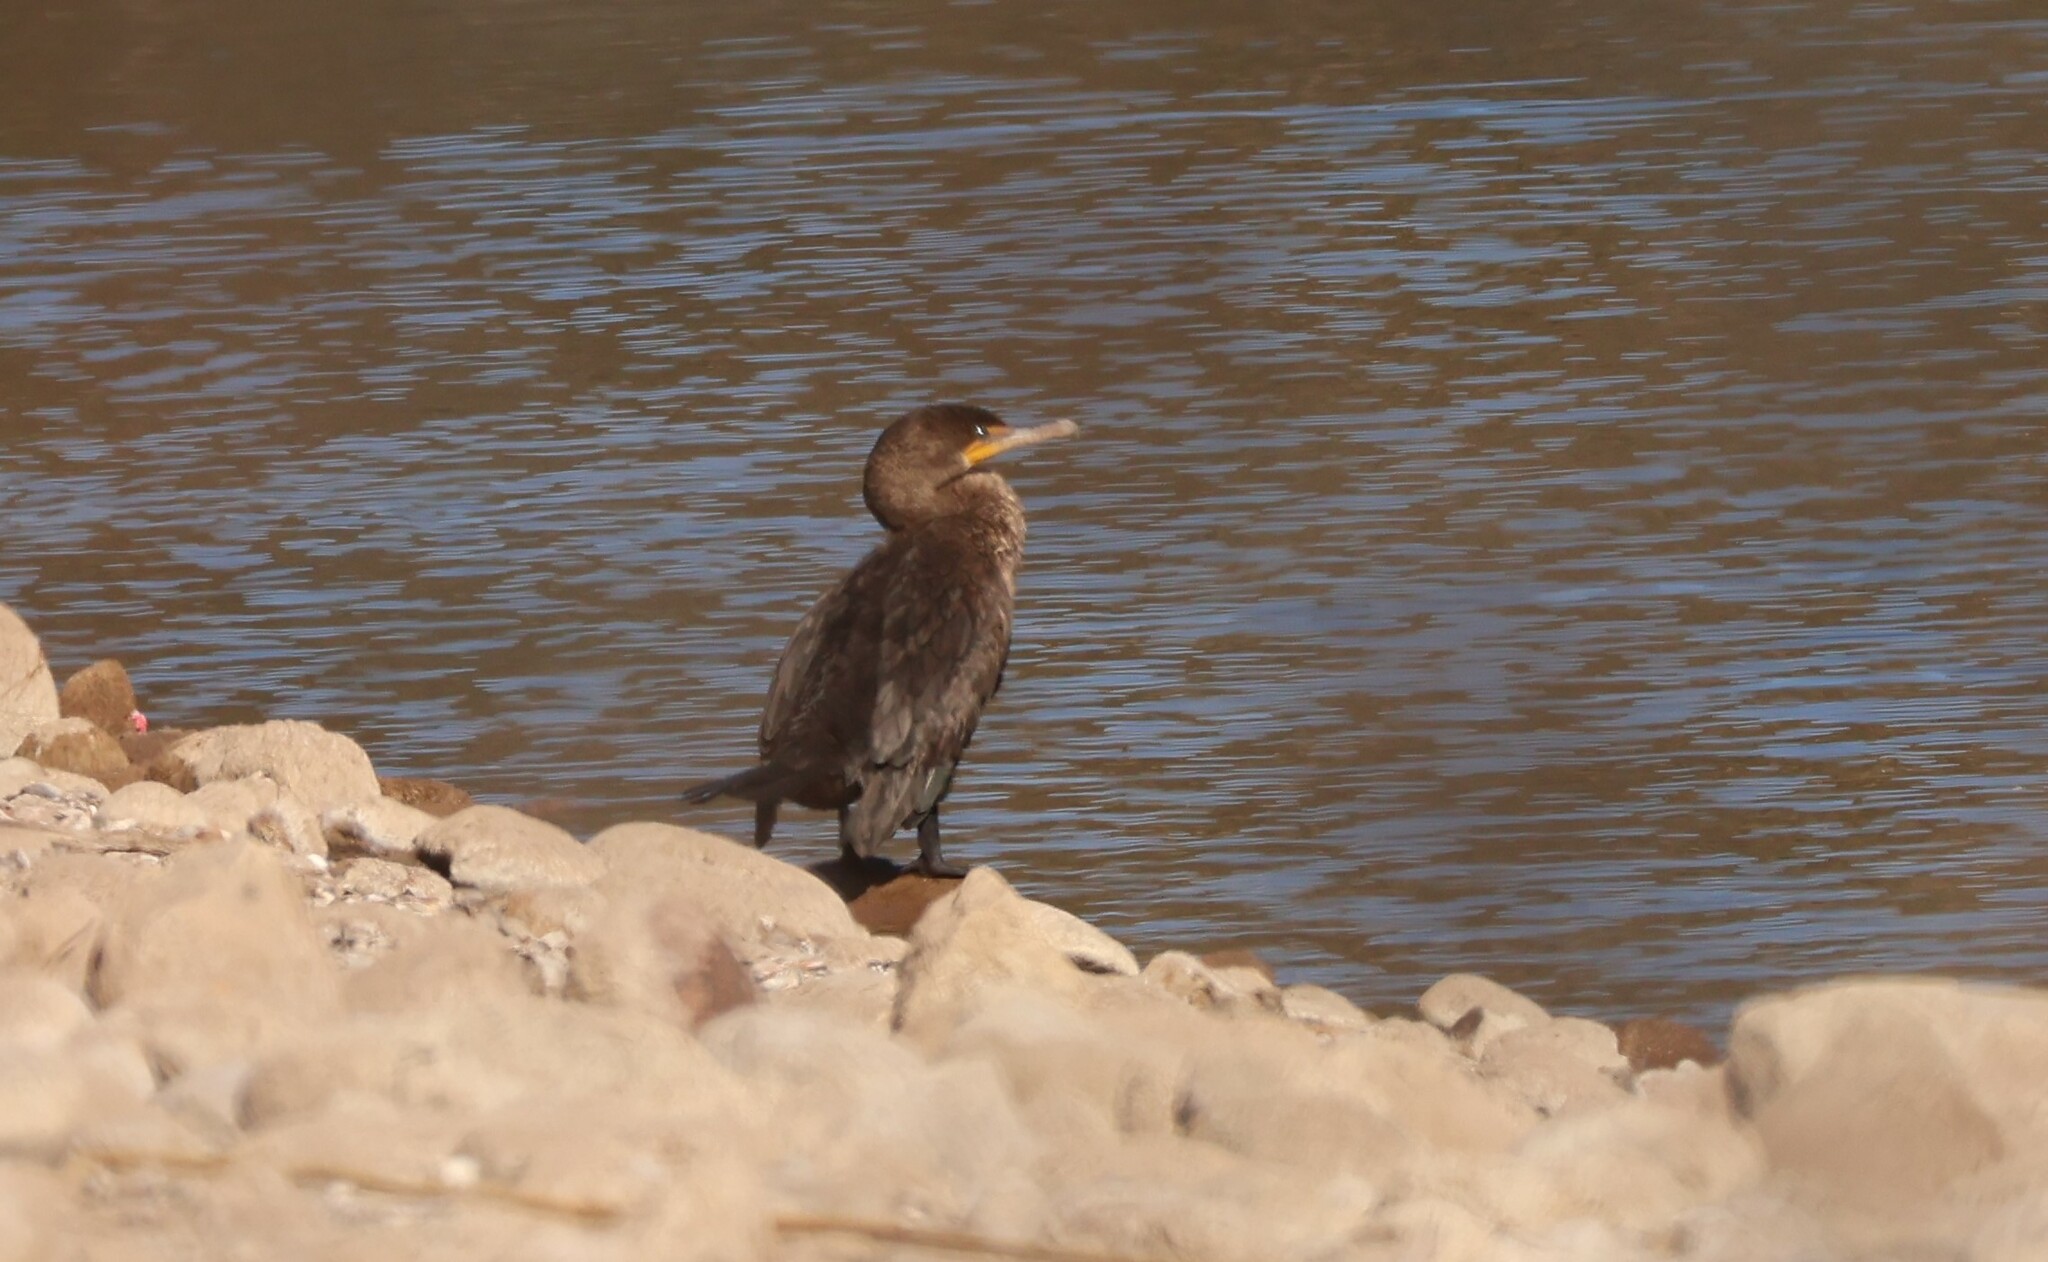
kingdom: Animalia
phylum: Chordata
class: Aves
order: Suliformes
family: Phalacrocoracidae
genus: Phalacrocorax
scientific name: Phalacrocorax auritus
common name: Double-crested cormorant
